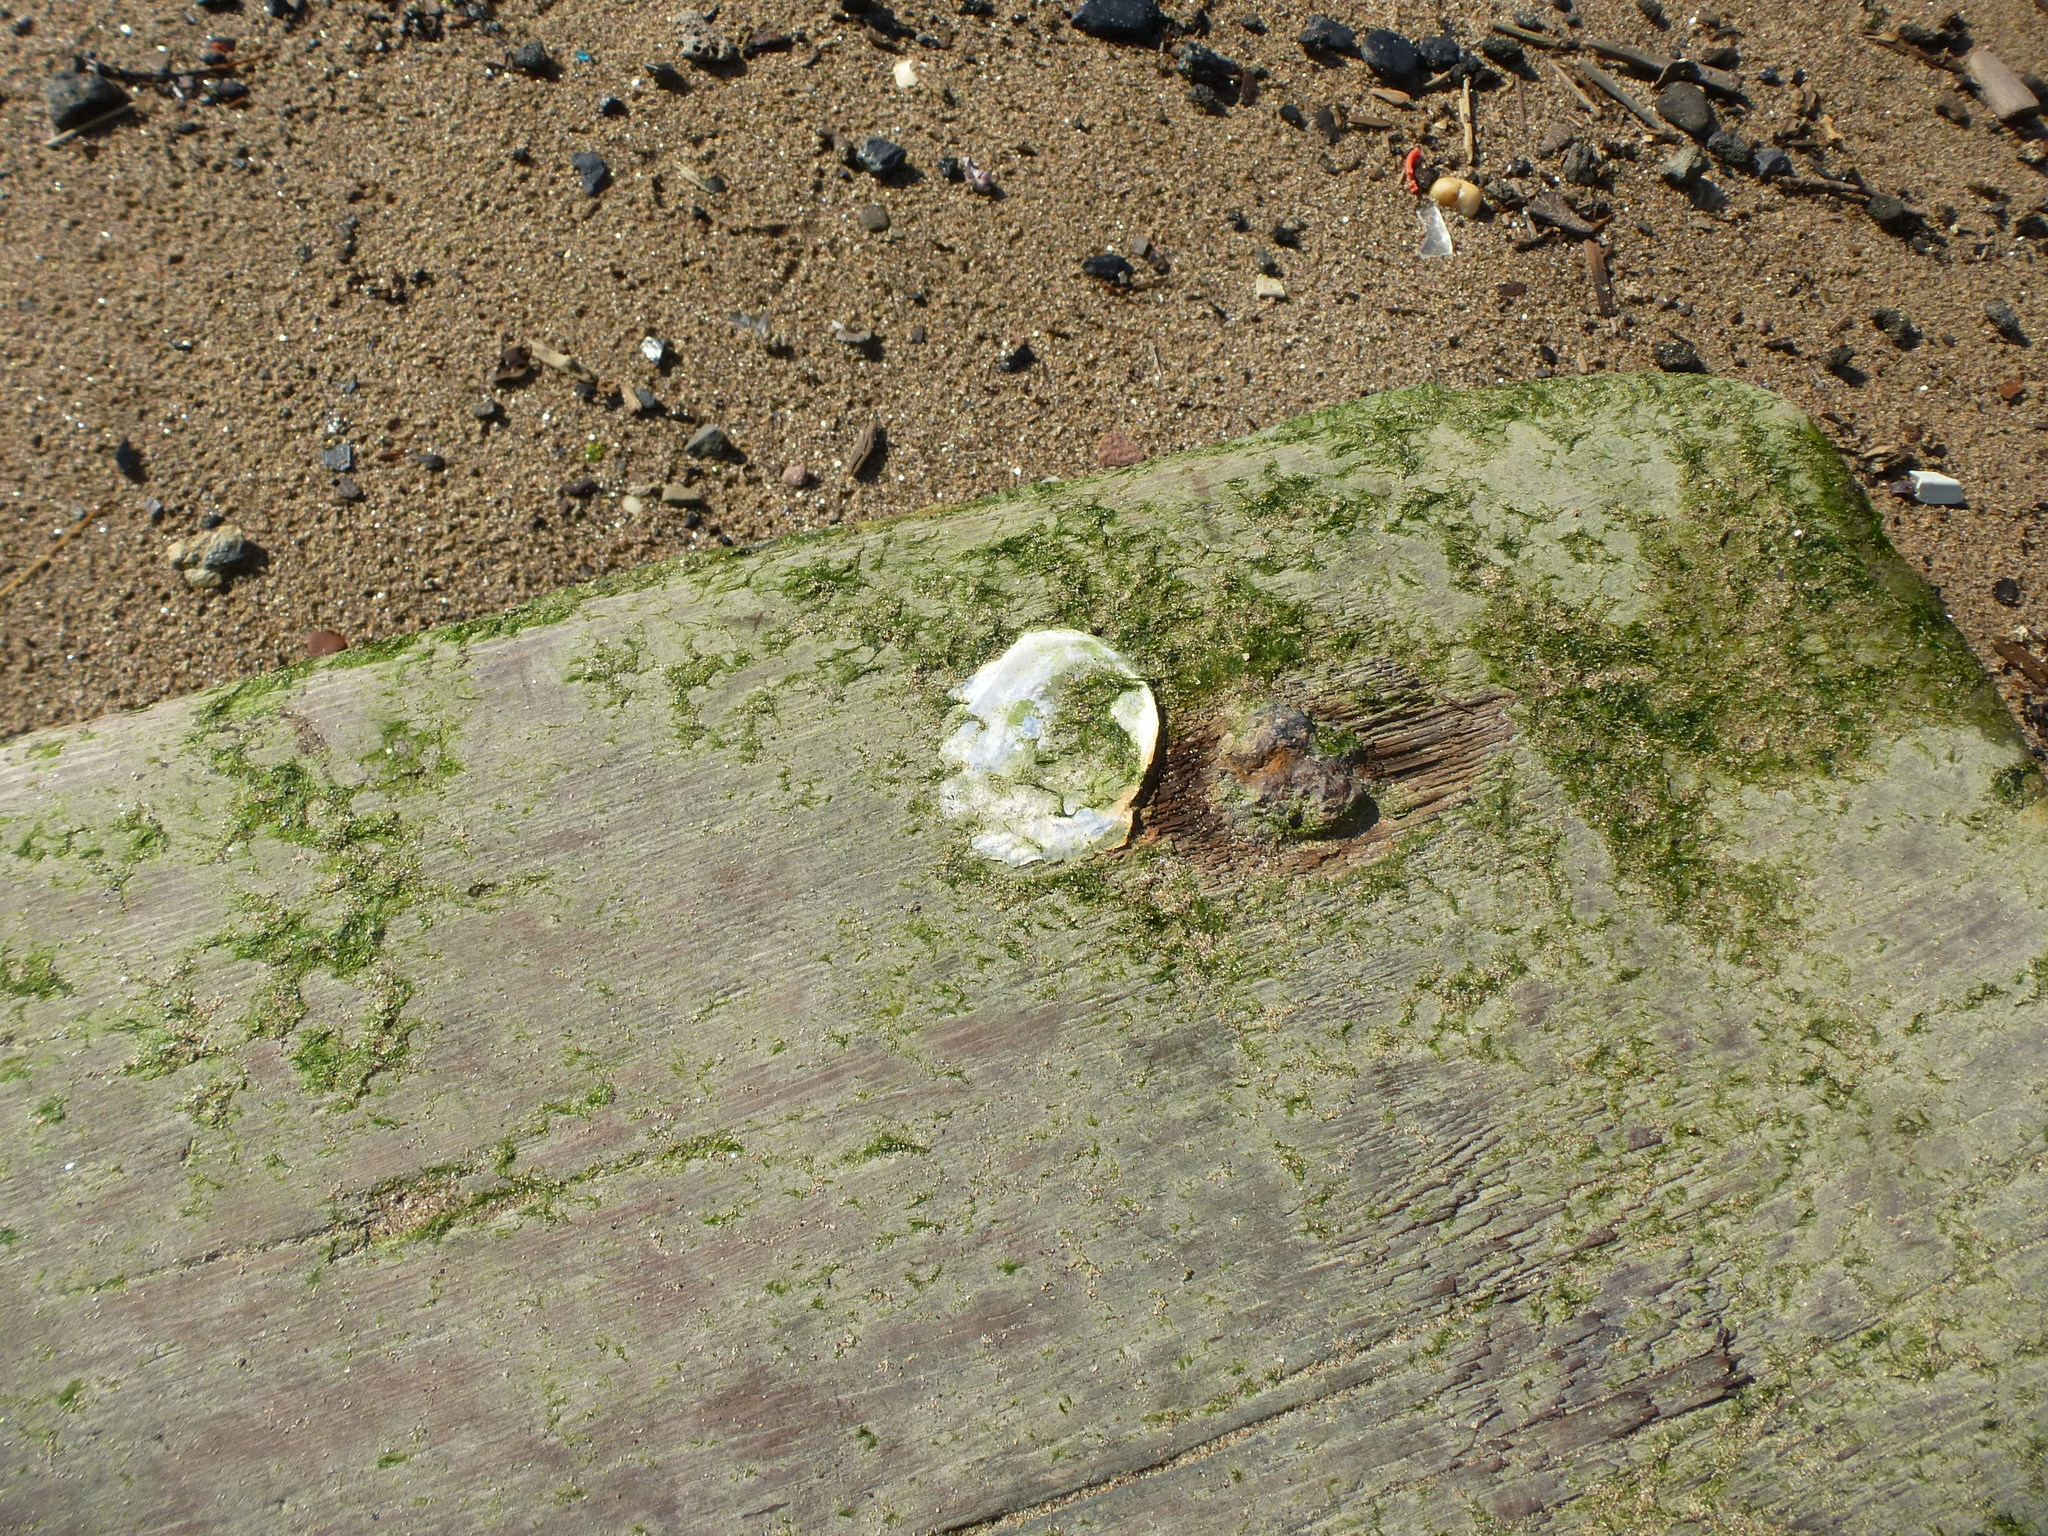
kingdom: Animalia
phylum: Mollusca
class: Bivalvia
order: Ostreida
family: Ostreidae
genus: Crassostrea
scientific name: Crassostrea virginica
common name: American oyster
